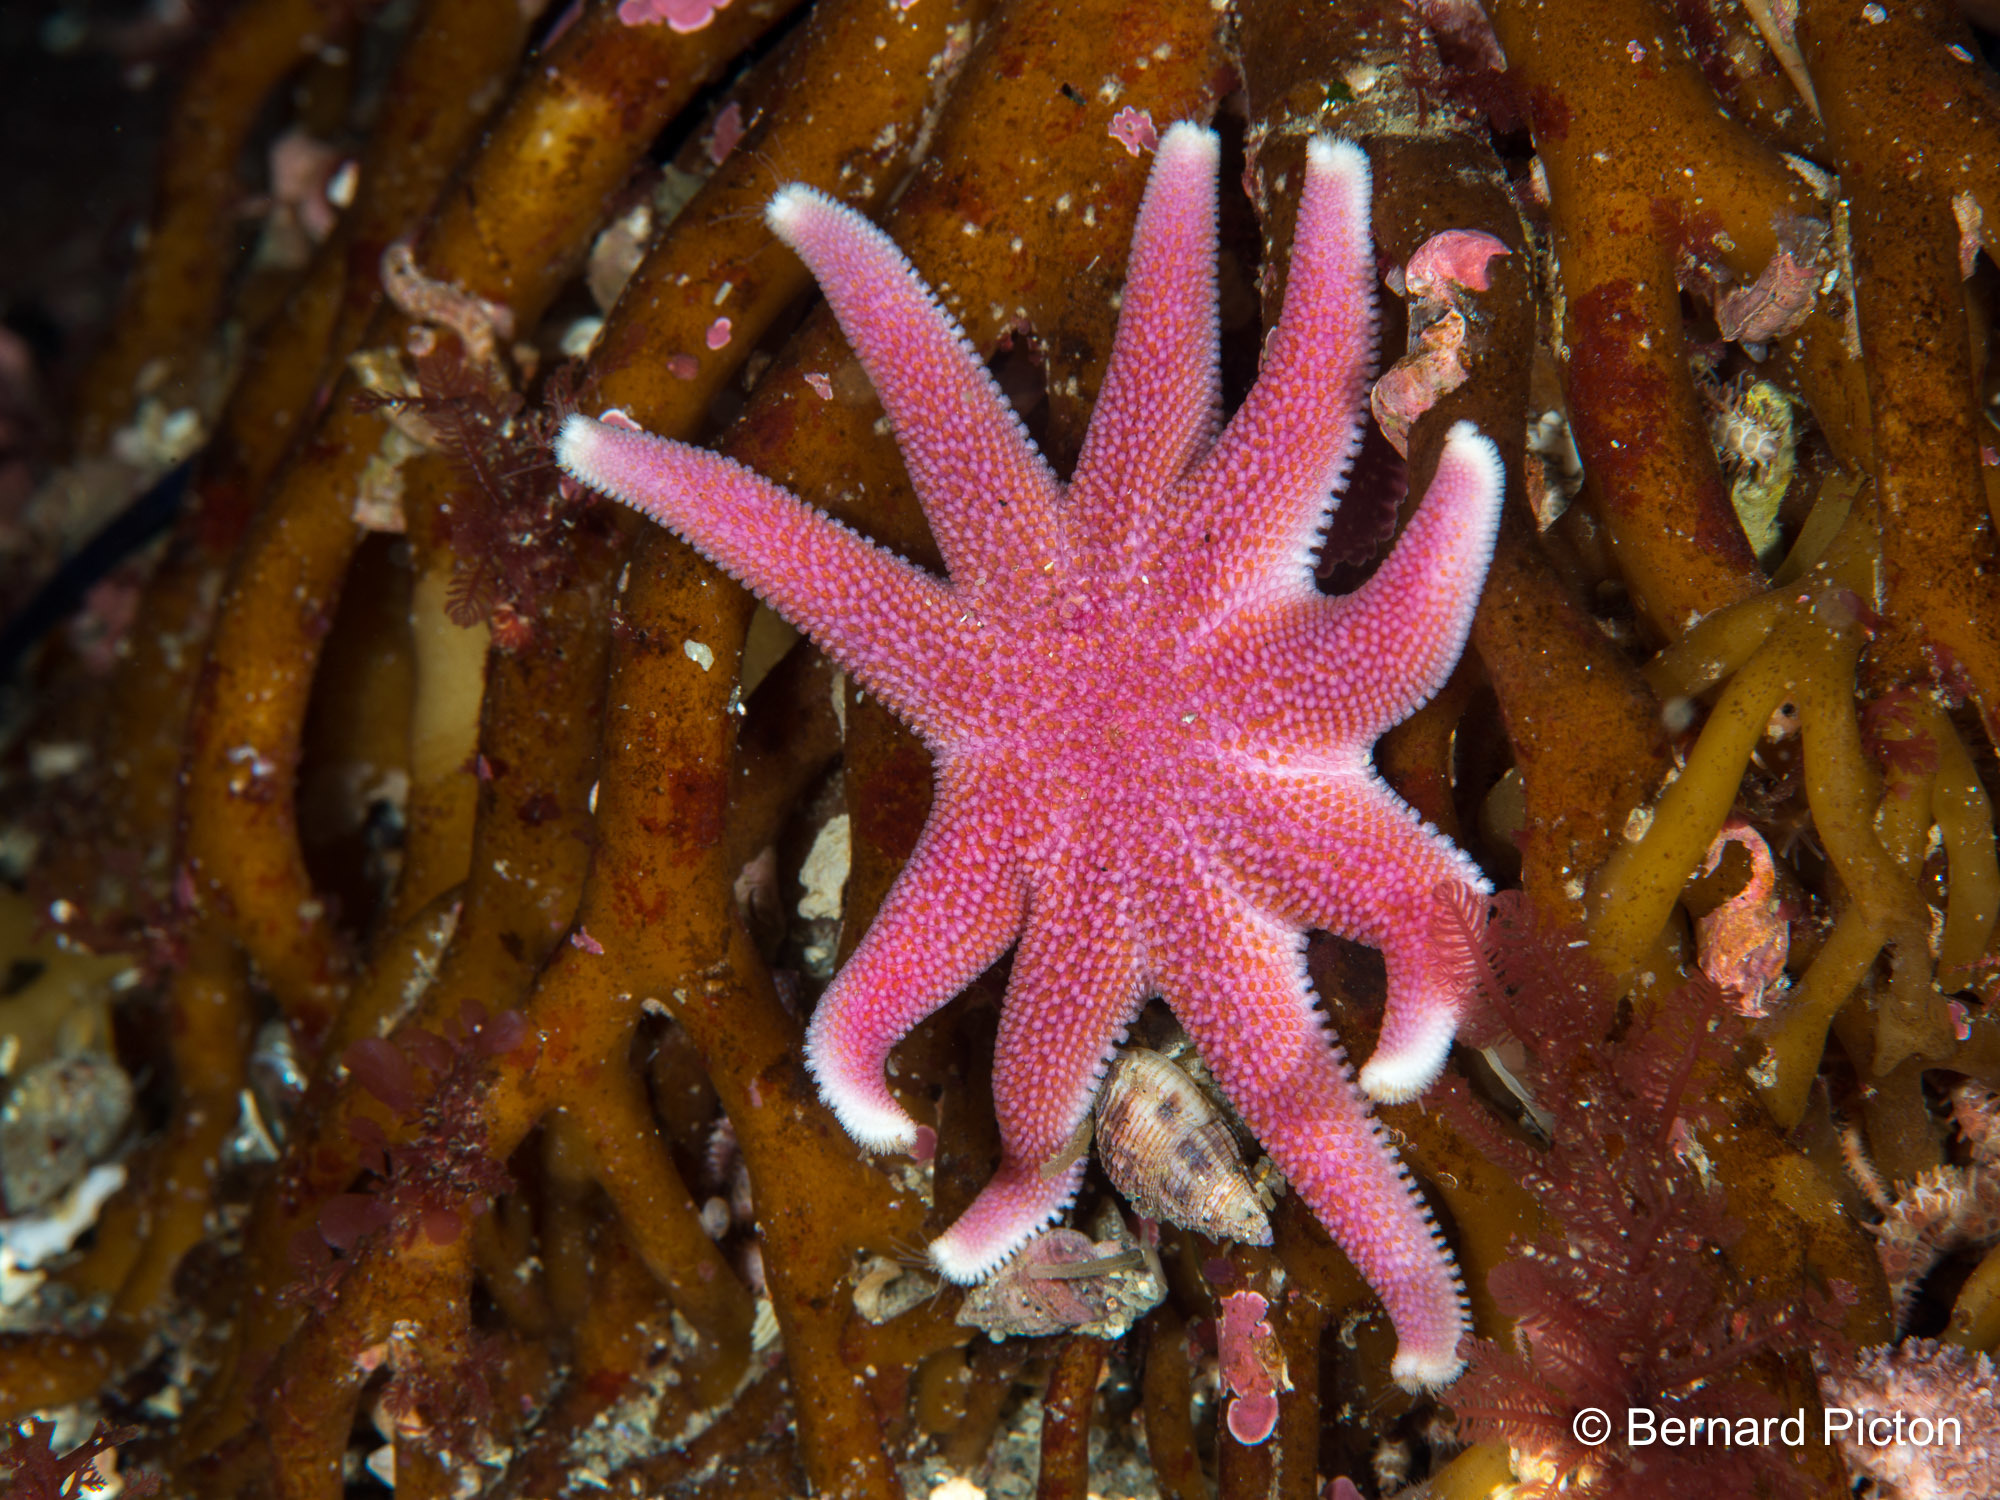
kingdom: Animalia
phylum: Echinodermata
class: Asteroidea
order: Valvatida
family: Solasteridae
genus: Solaster
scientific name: Solaster endeca
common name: Purple sun star
